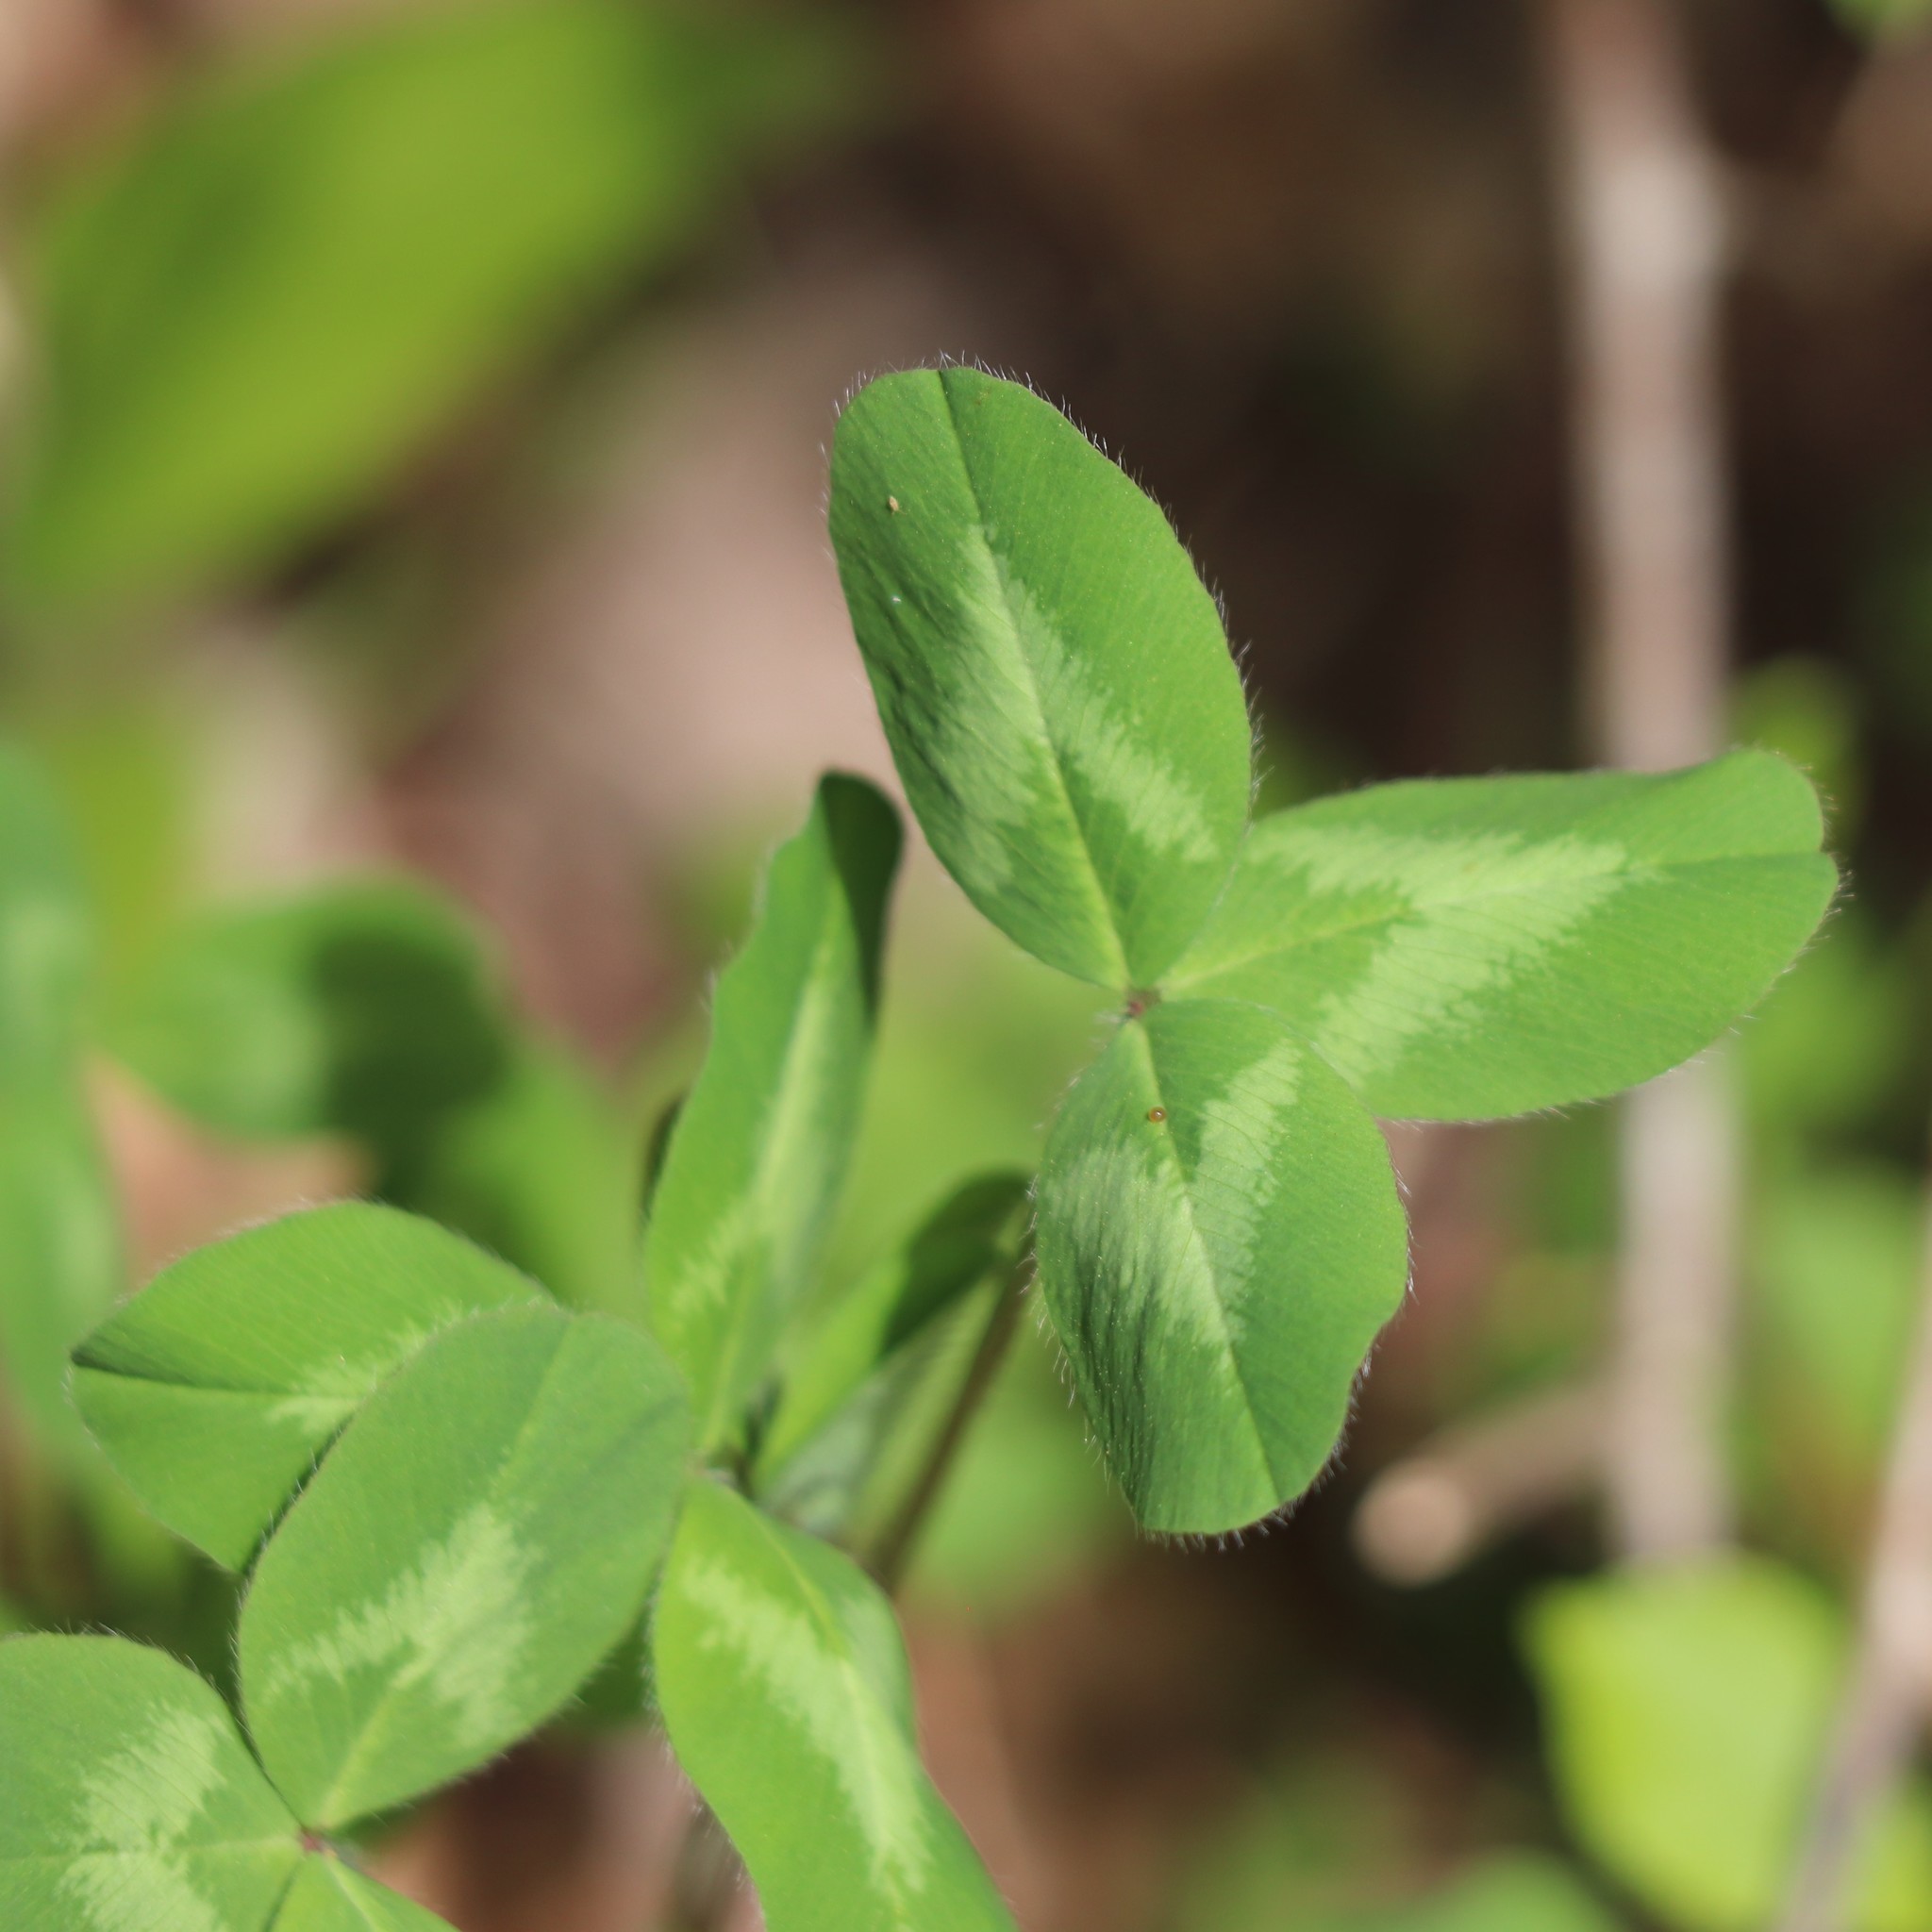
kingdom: Plantae
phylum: Tracheophyta
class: Magnoliopsida
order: Fabales
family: Fabaceae
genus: Trifolium
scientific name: Trifolium pratense
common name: Red clover
